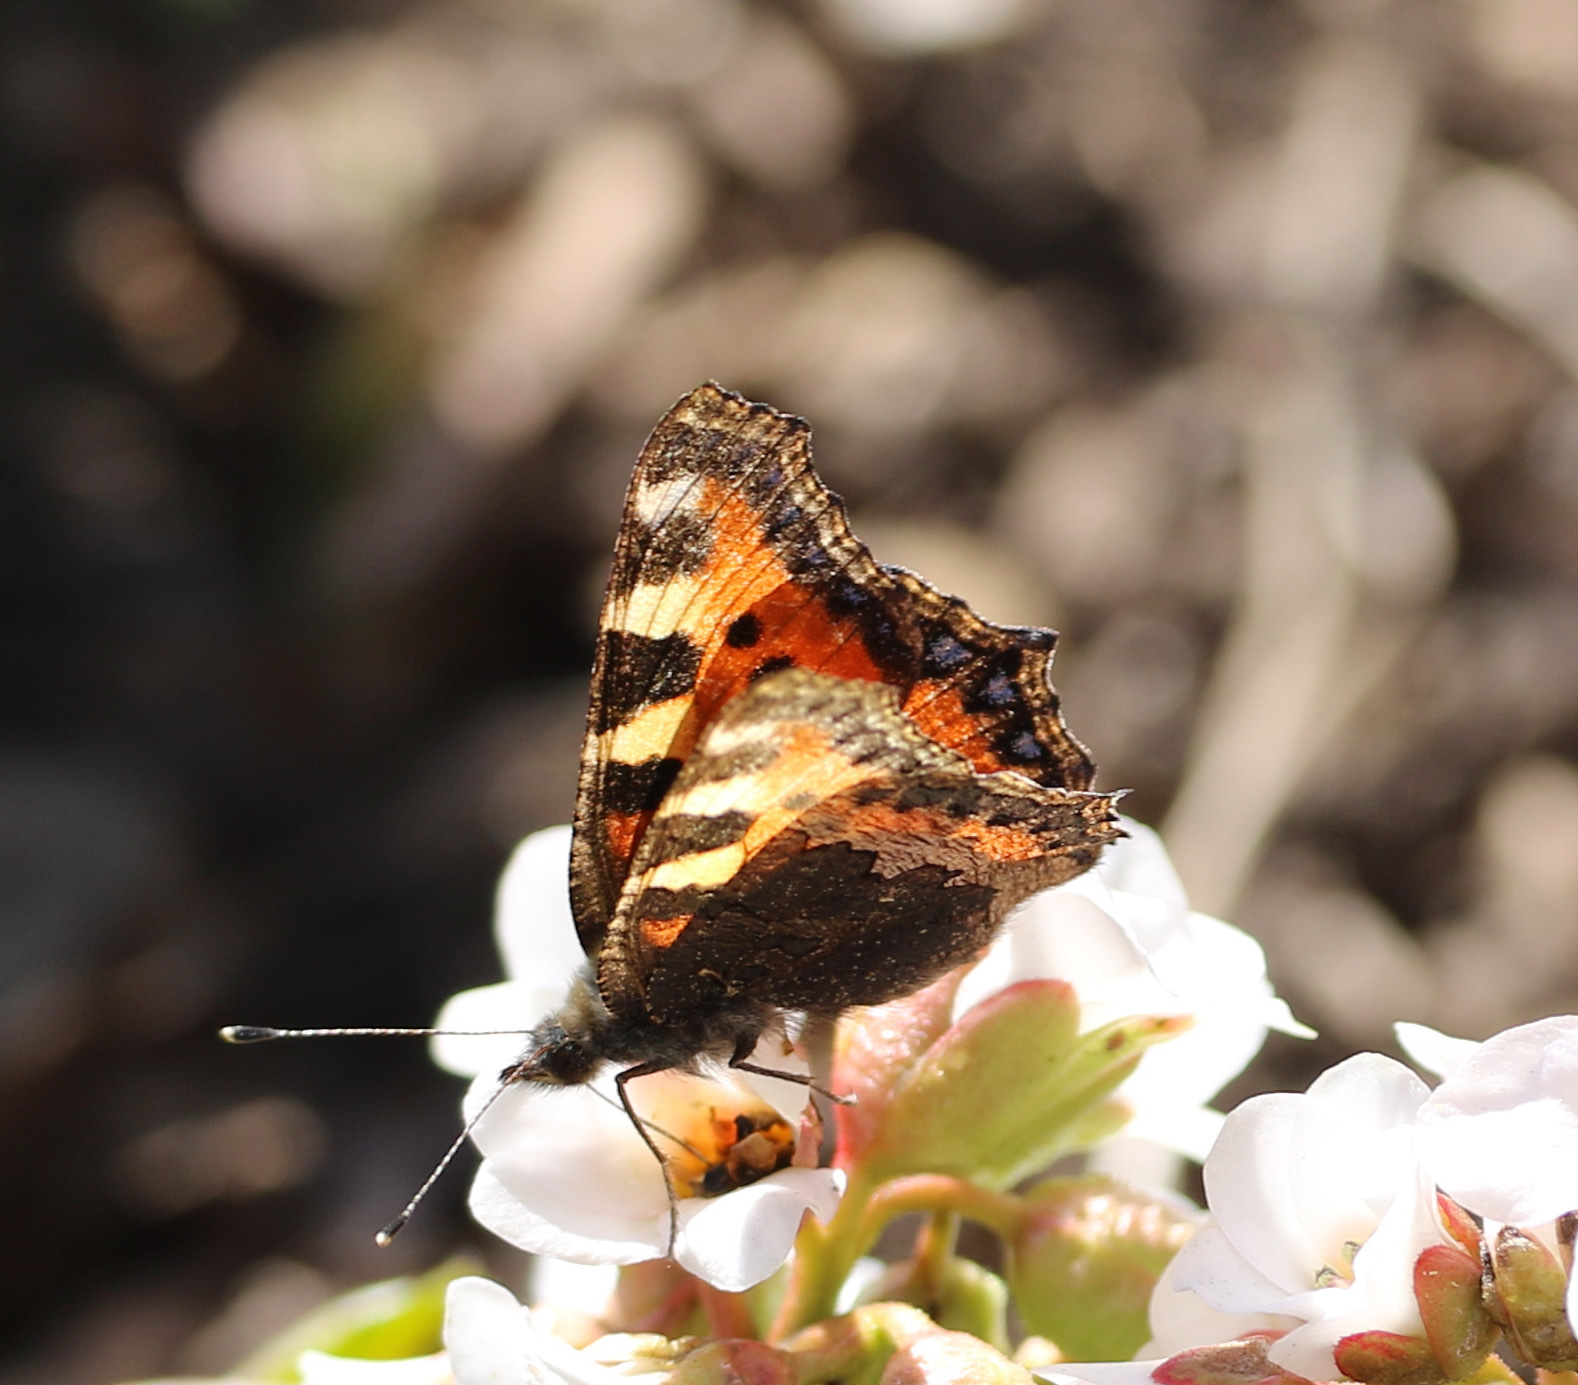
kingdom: Animalia
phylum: Arthropoda
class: Insecta
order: Lepidoptera
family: Nymphalidae
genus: Aglais
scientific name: Aglais urticae
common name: Small tortoiseshell
